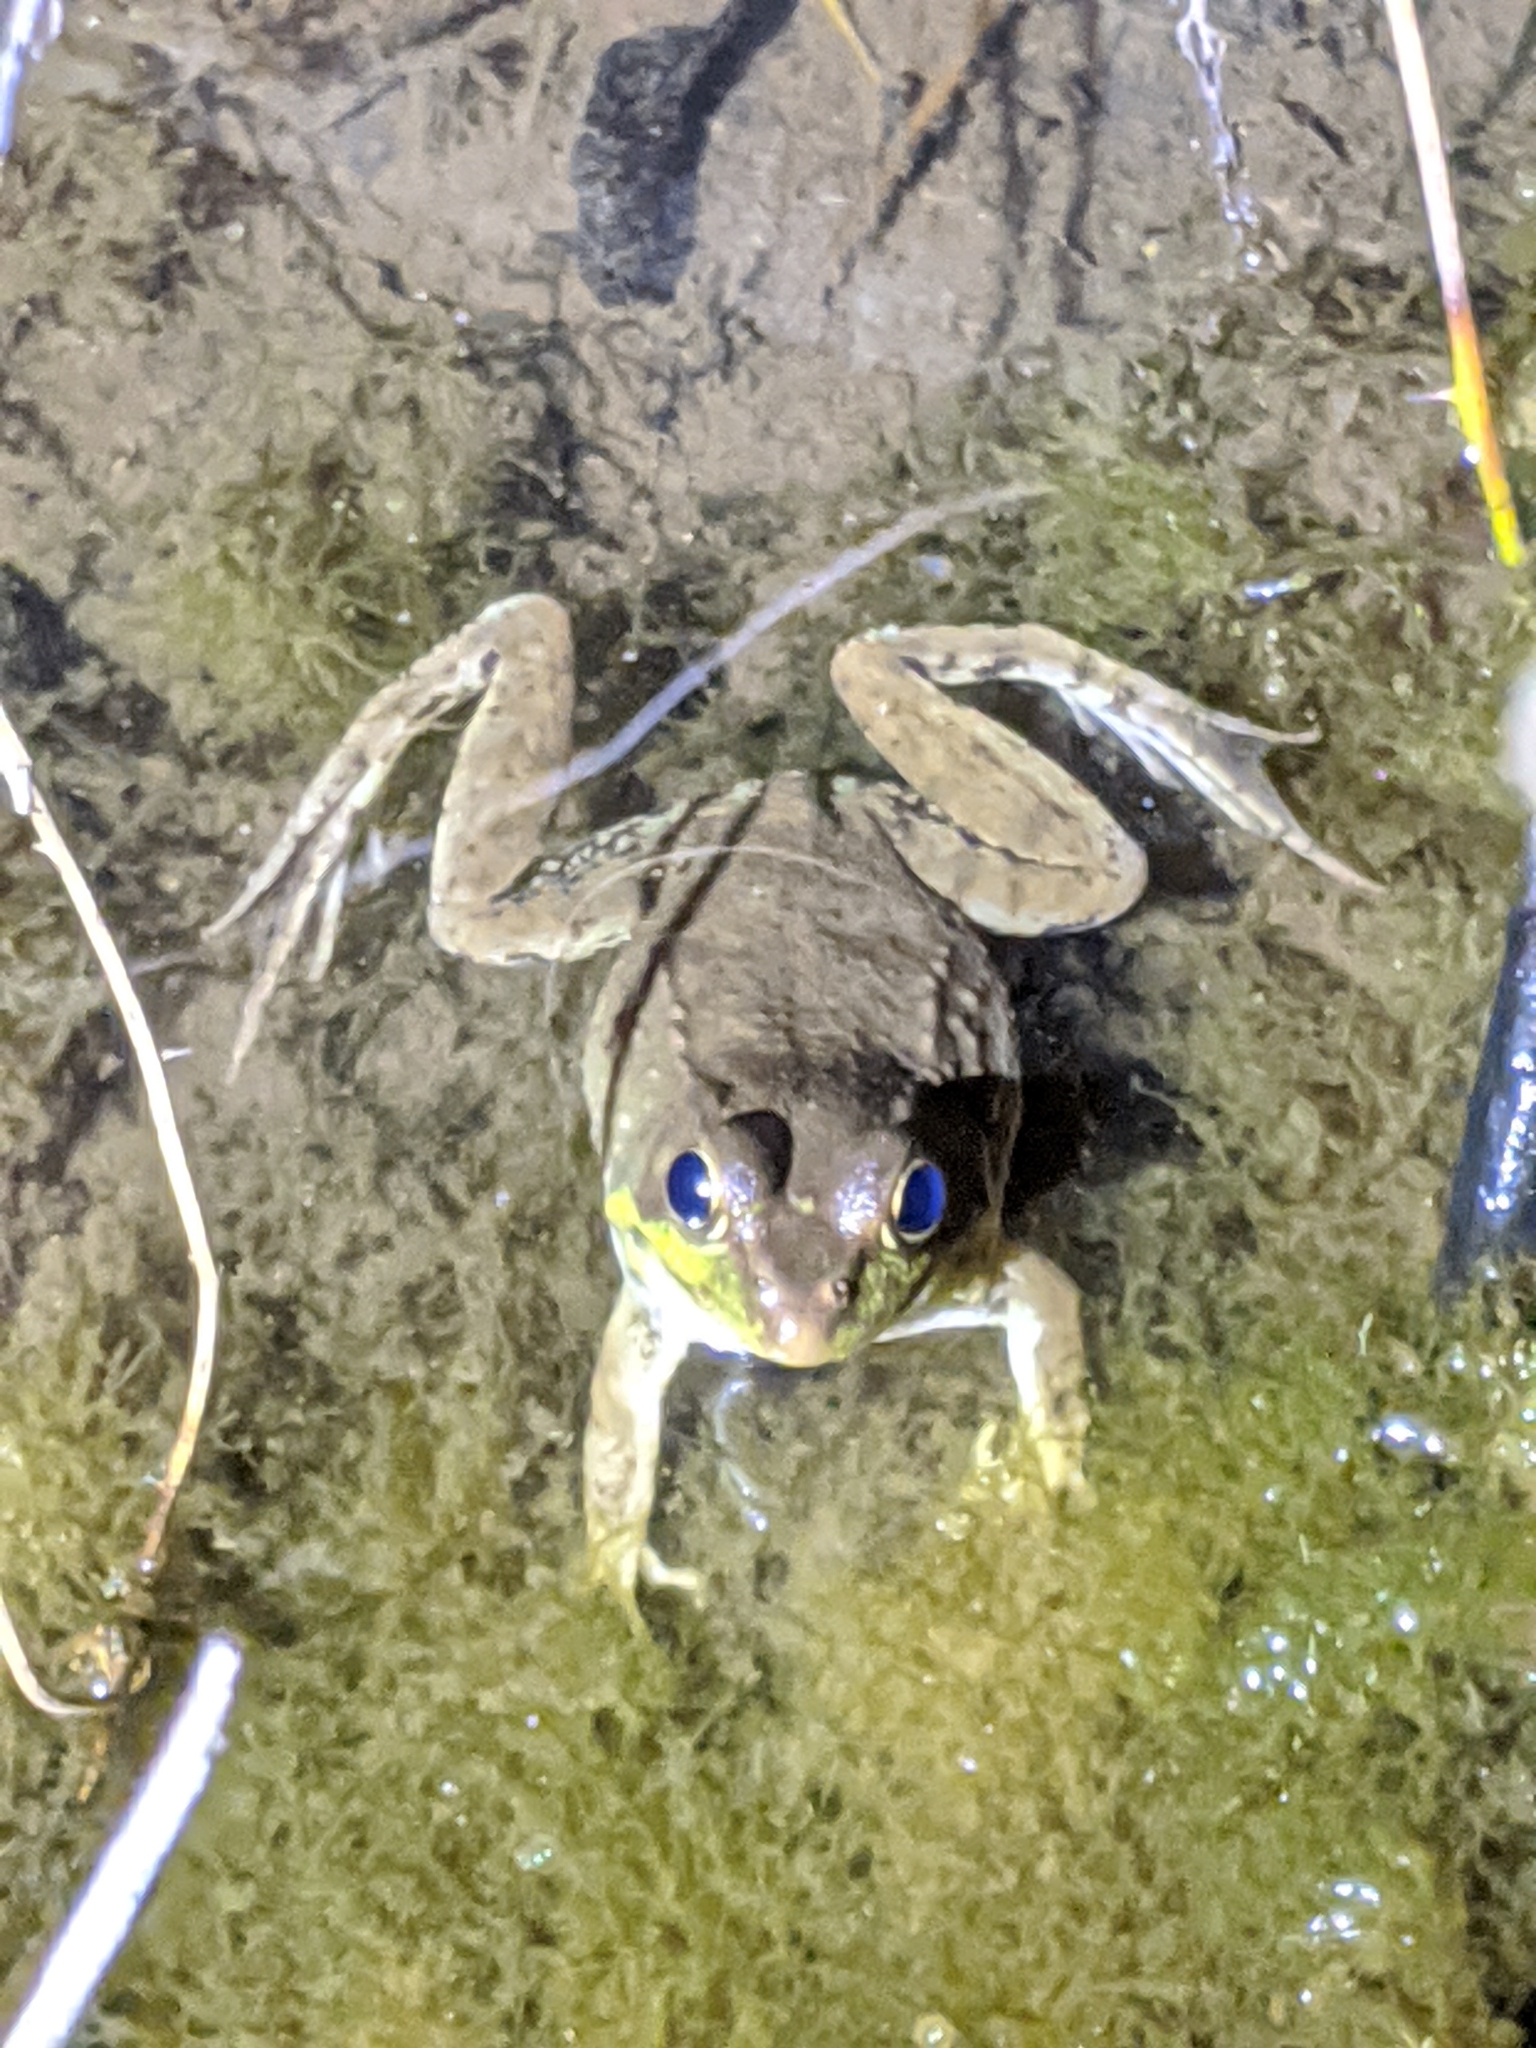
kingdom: Animalia
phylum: Chordata
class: Amphibia
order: Anura
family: Ranidae
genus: Lithobates
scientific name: Lithobates clamitans
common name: Green frog
